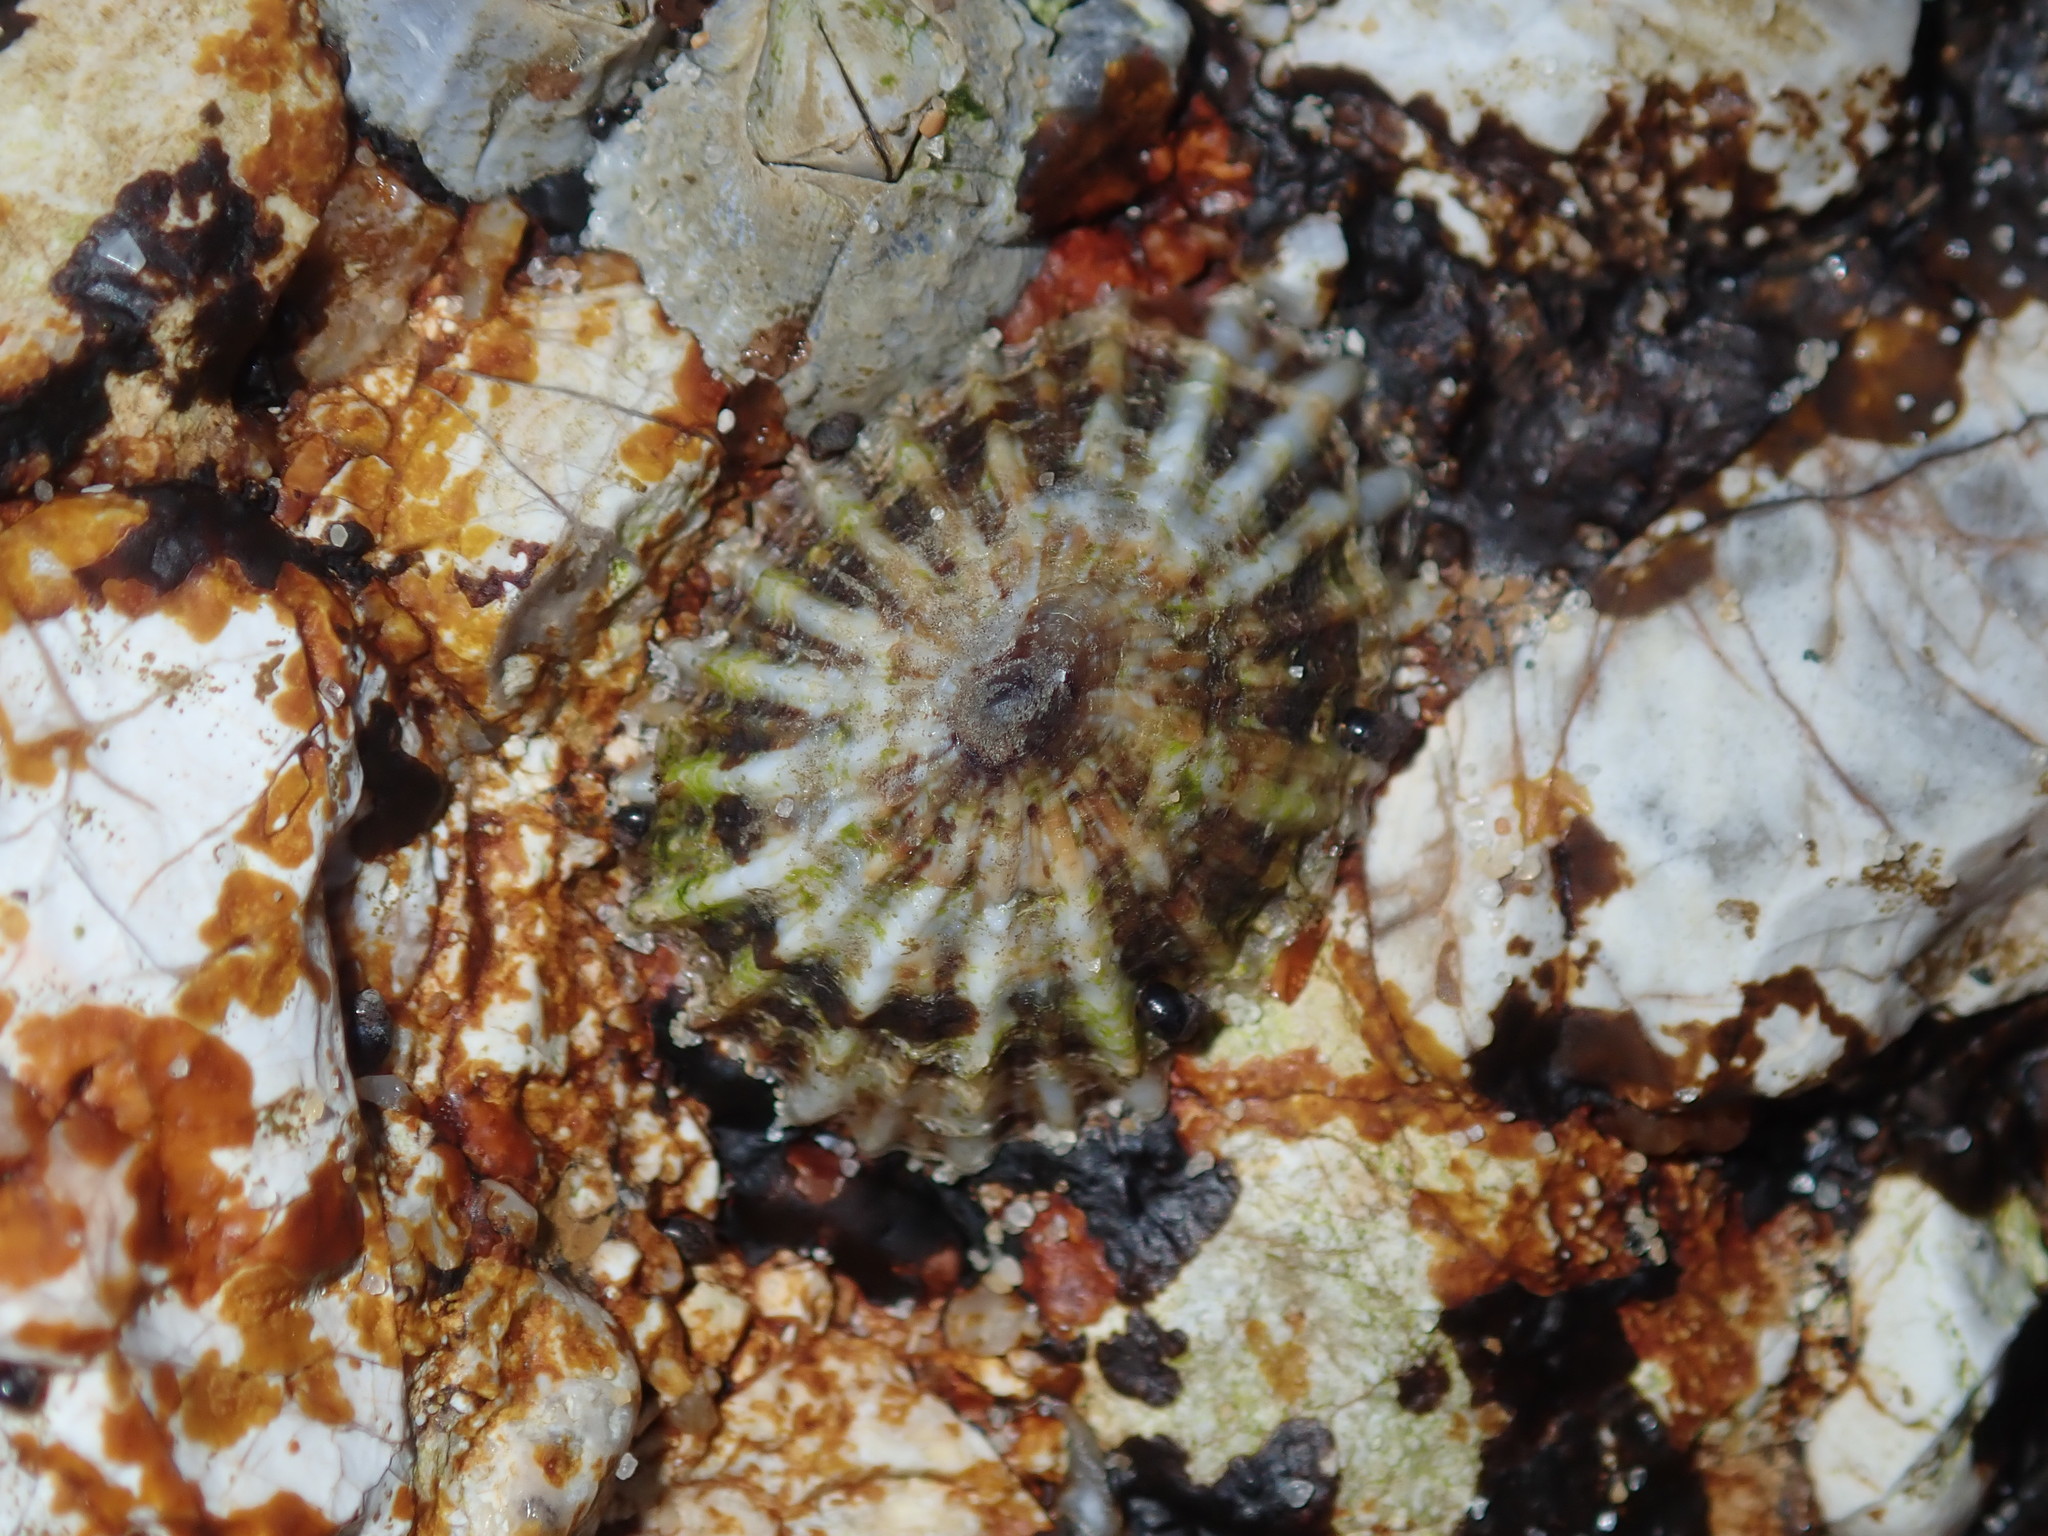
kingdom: Animalia
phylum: Mollusca
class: Gastropoda
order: Siphonariida
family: Siphonariidae
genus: Siphonaria
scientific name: Siphonaria denticulata
